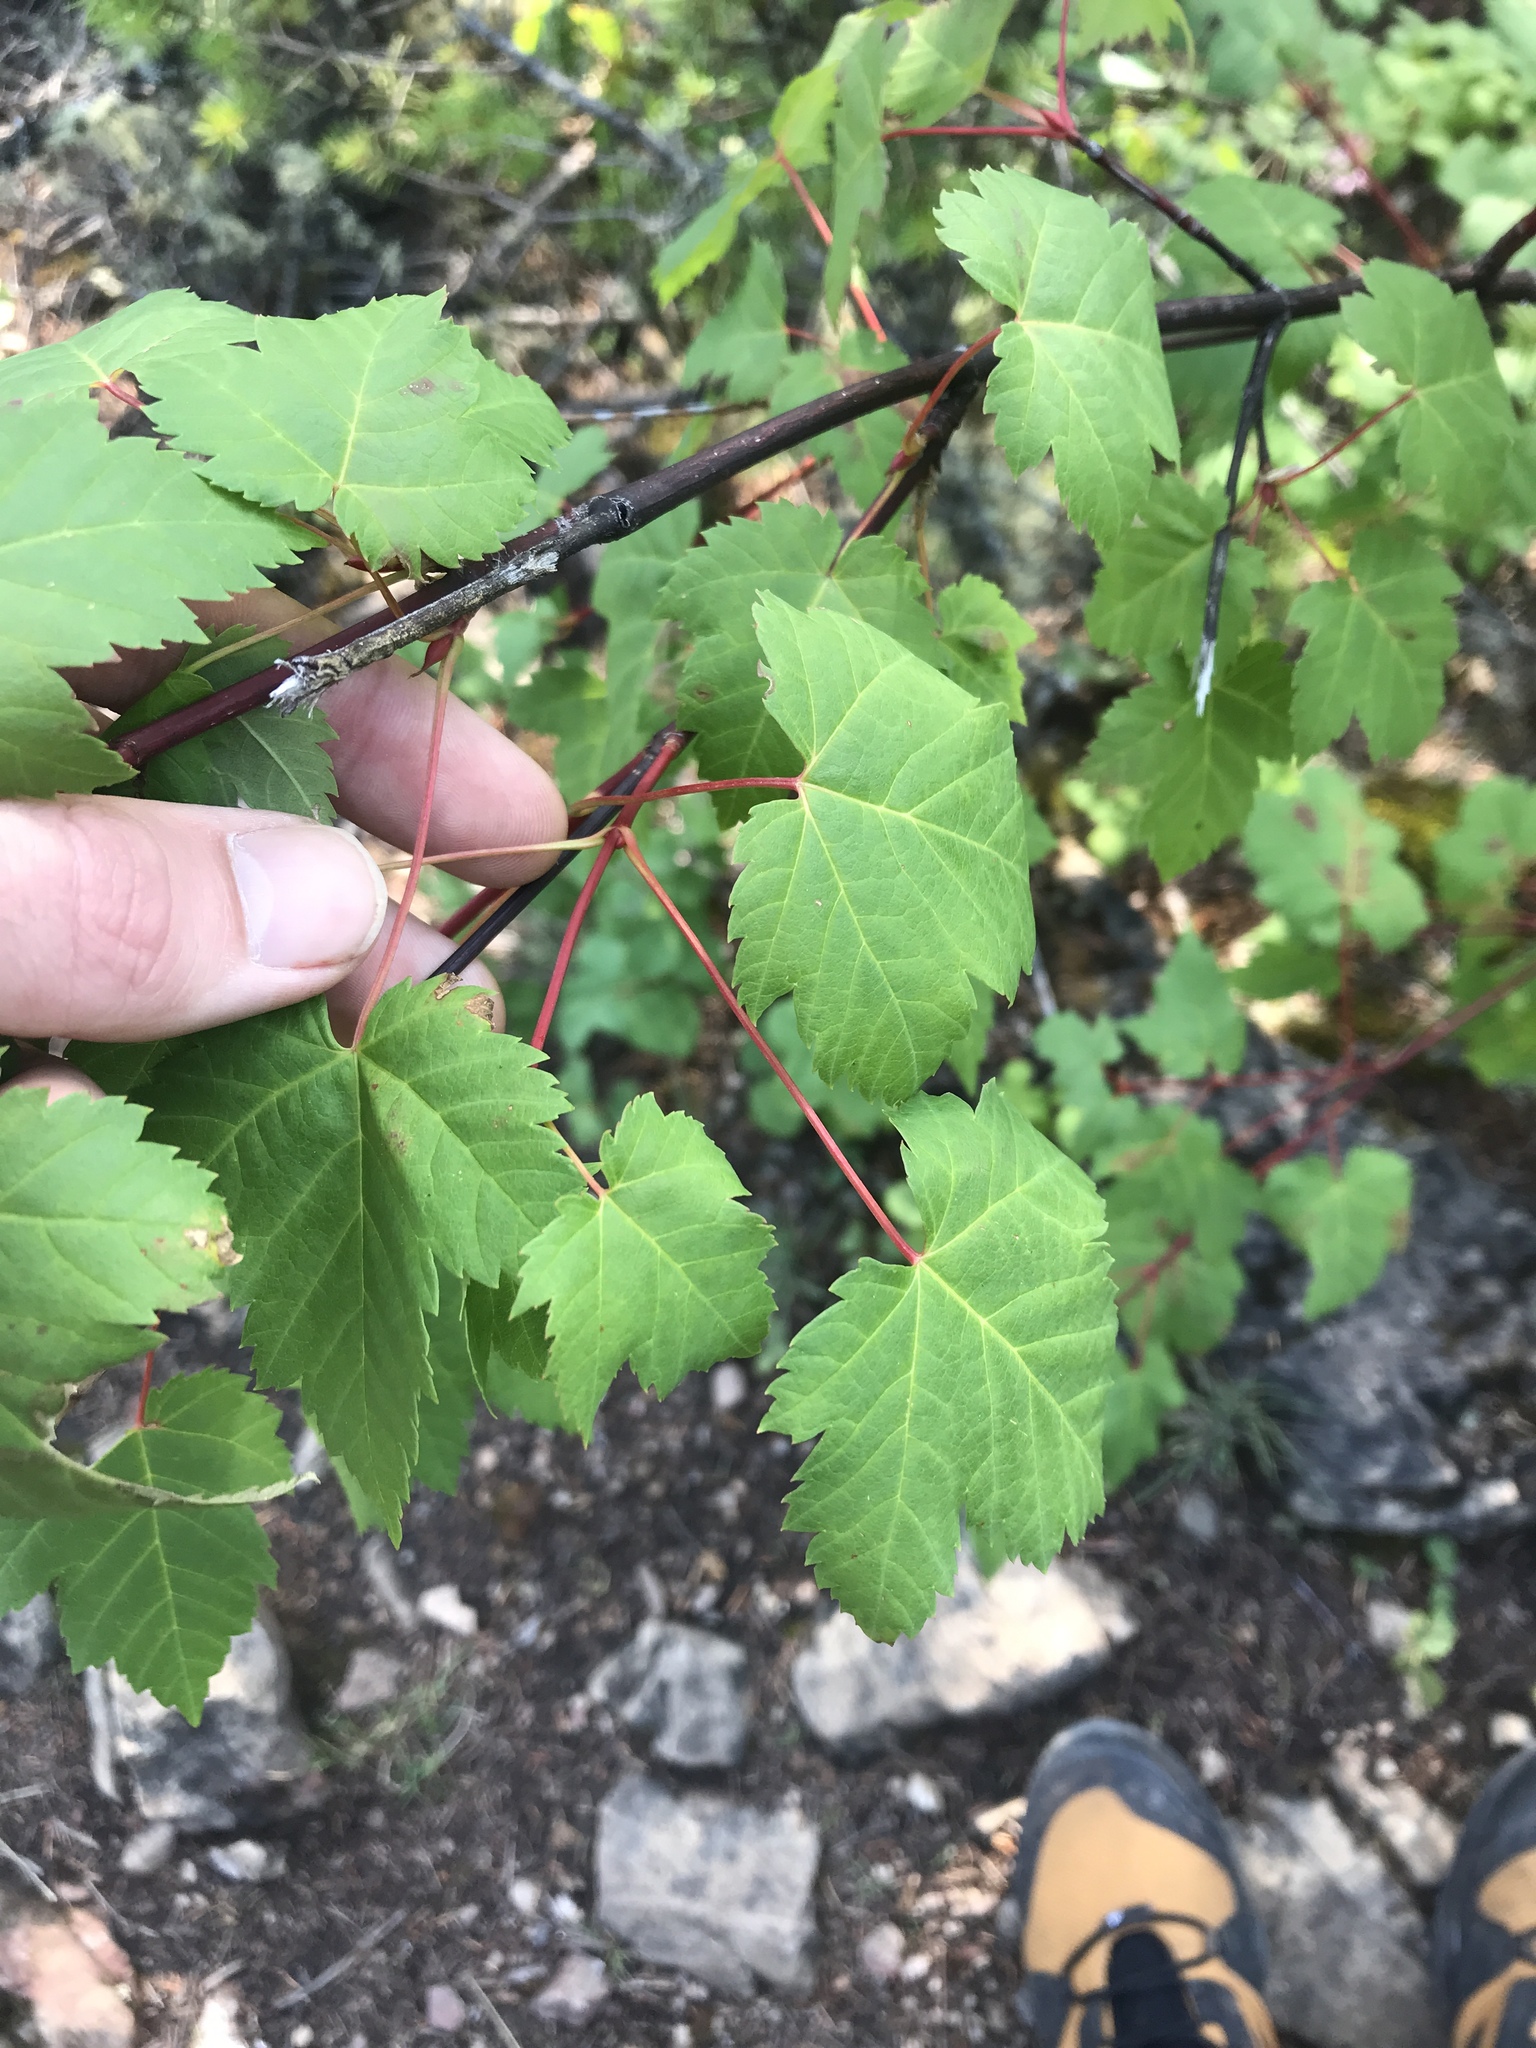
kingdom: Plantae
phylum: Tracheophyta
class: Magnoliopsida
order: Sapindales
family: Sapindaceae
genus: Acer
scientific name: Acer glabrum
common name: Rocky mountain maple
